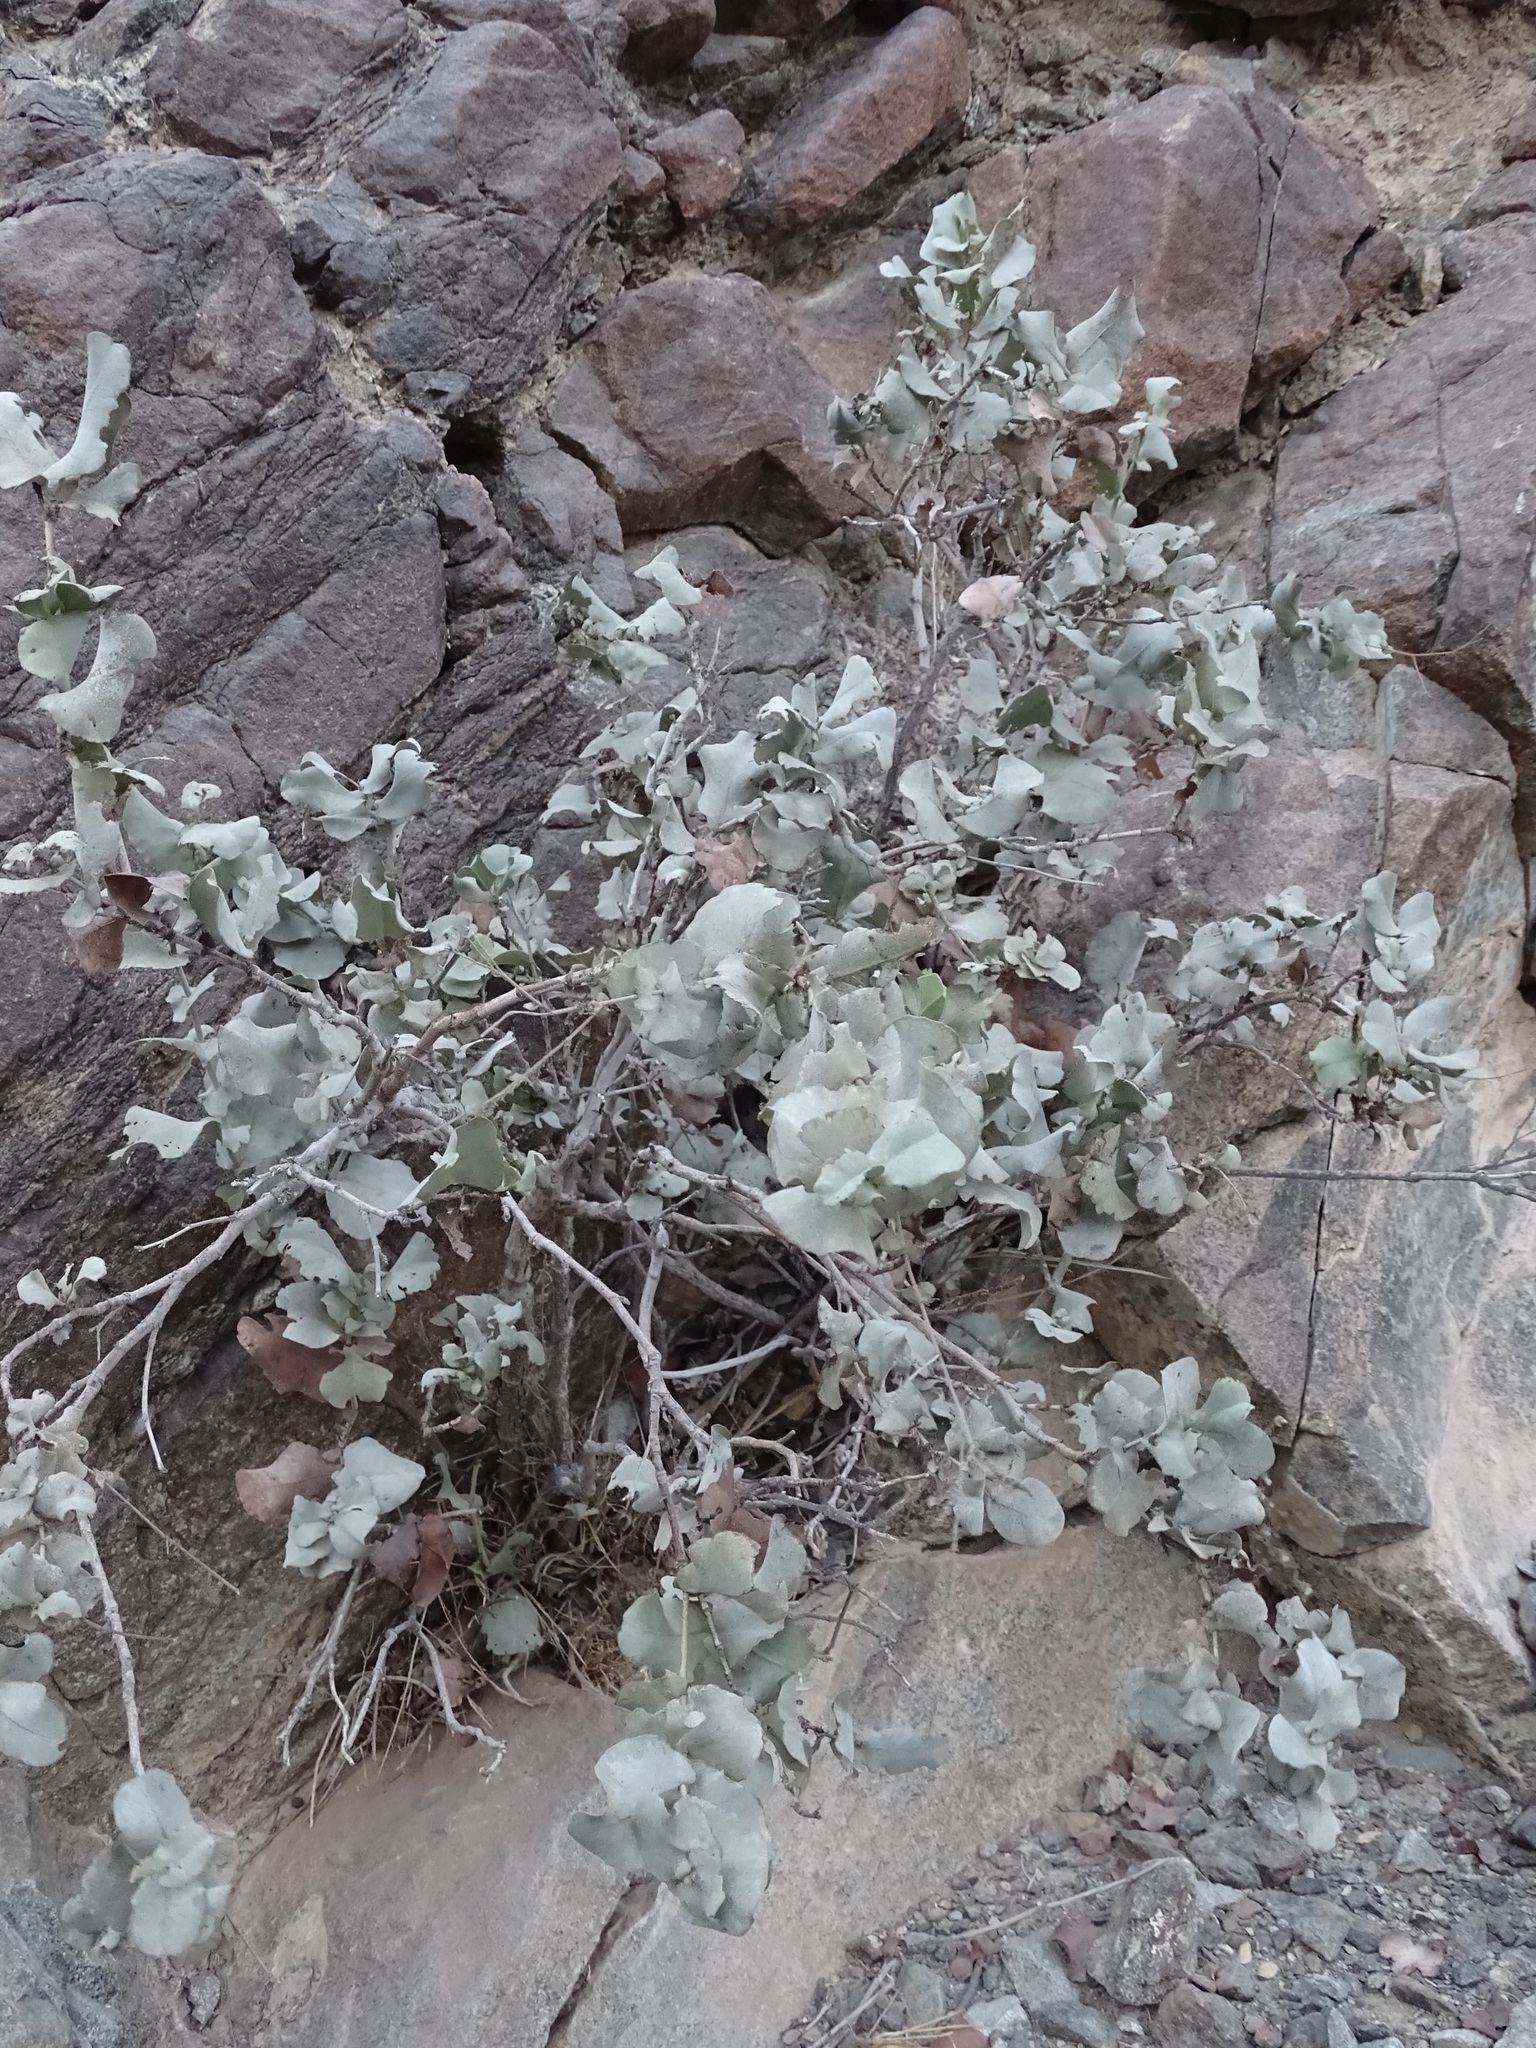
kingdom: Plantae
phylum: Tracheophyta
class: Magnoliopsida
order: Caryophyllales
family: Plumbaginaceae
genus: Dyerophytum
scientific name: Dyerophytum indicum
